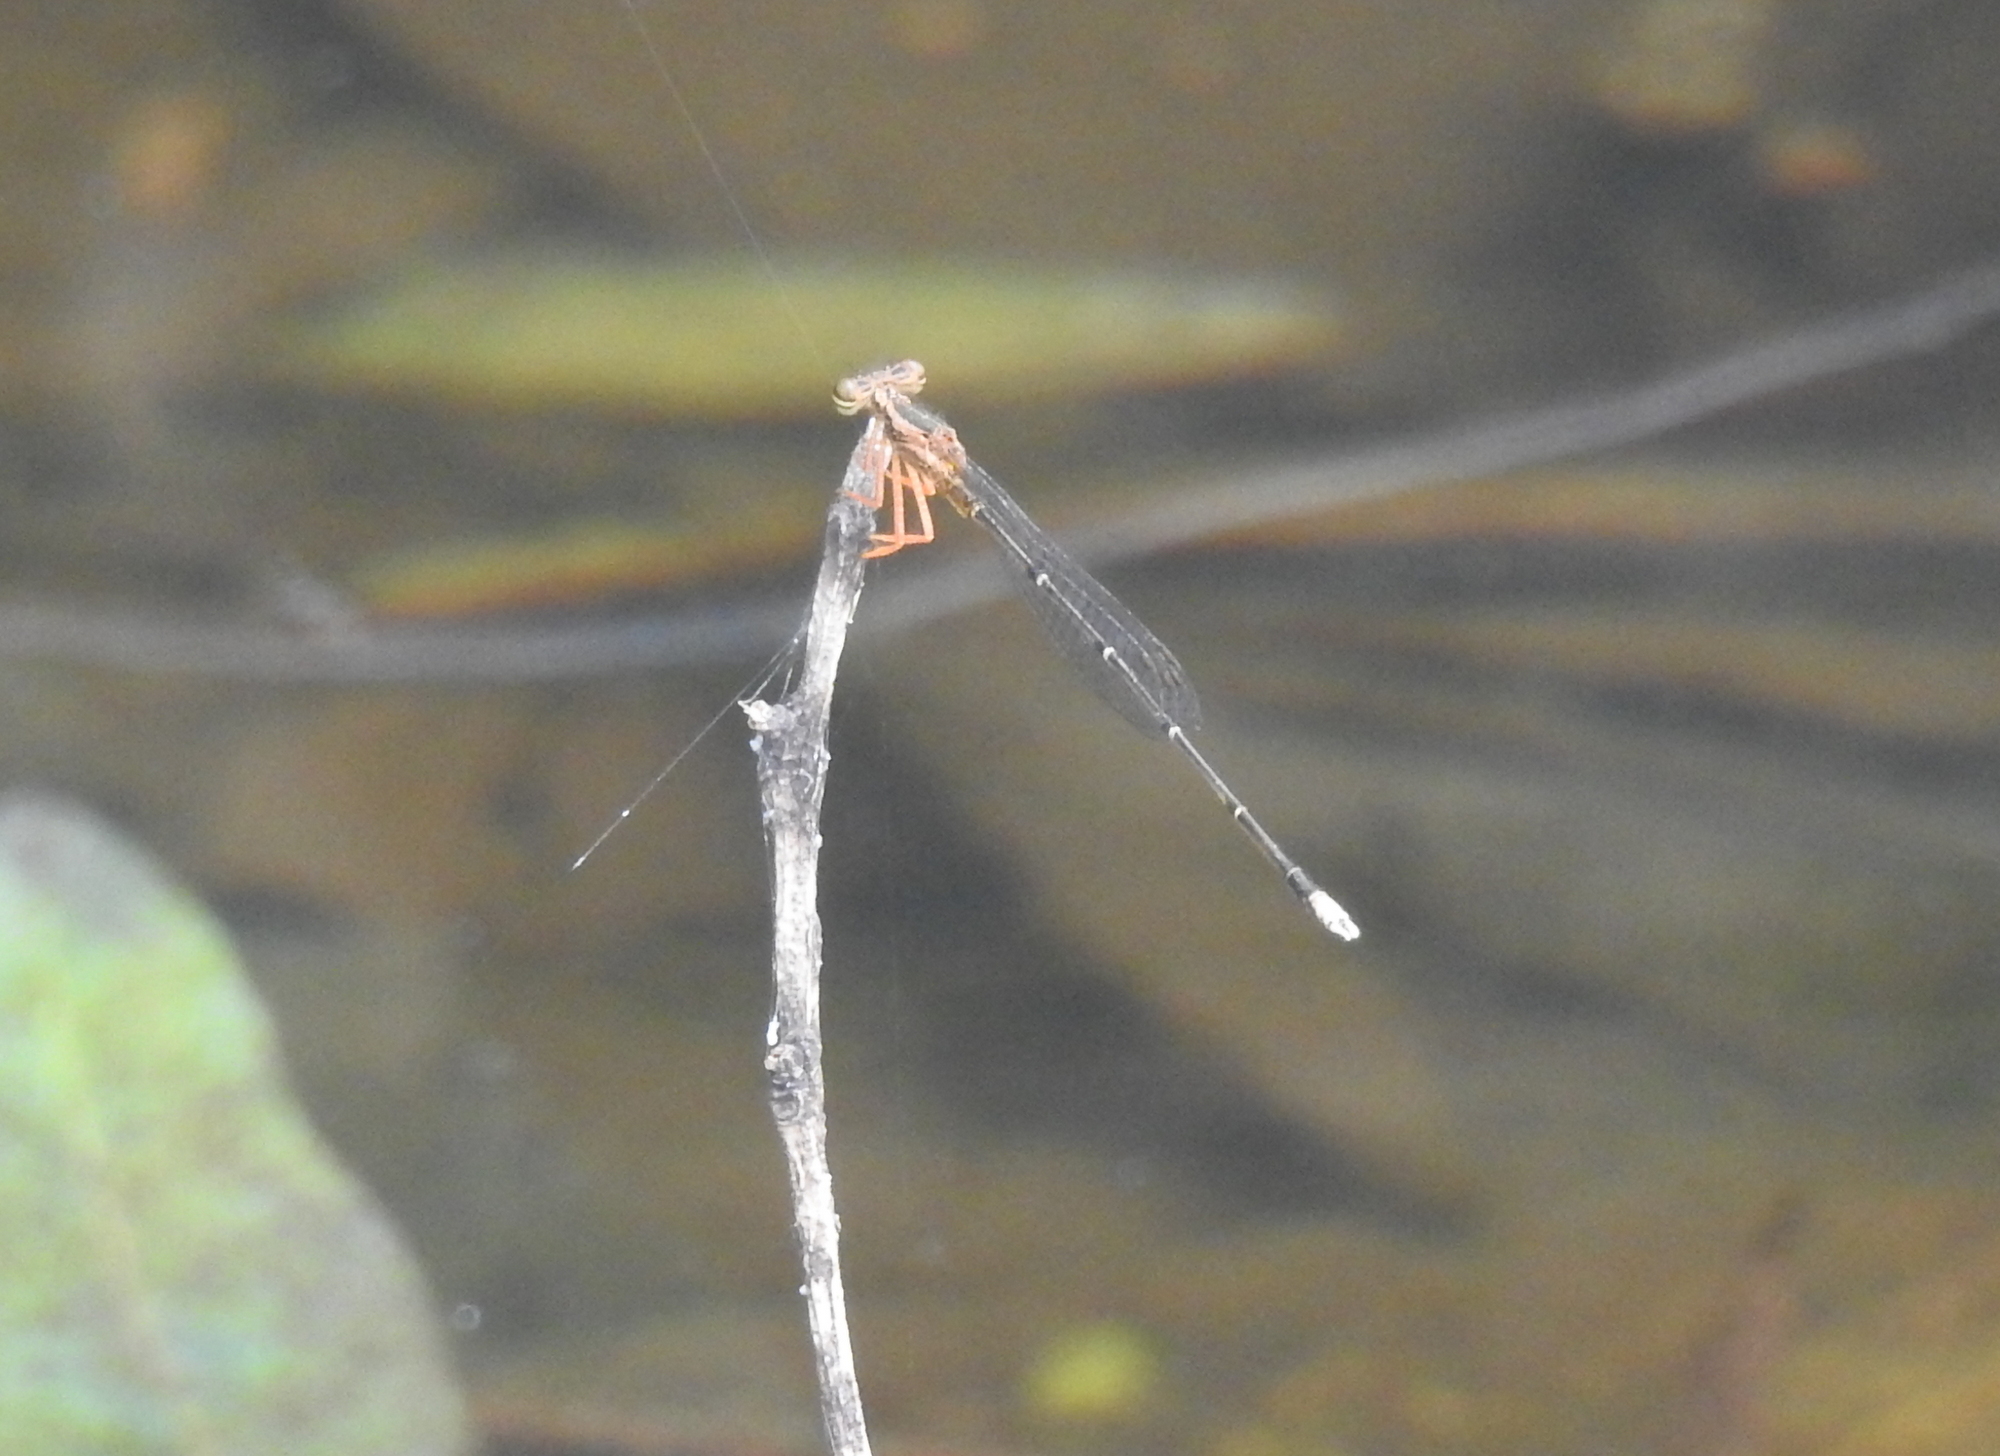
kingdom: Animalia
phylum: Arthropoda
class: Insecta
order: Odonata
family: Platycnemididae
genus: Copera
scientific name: Copera marginipes
